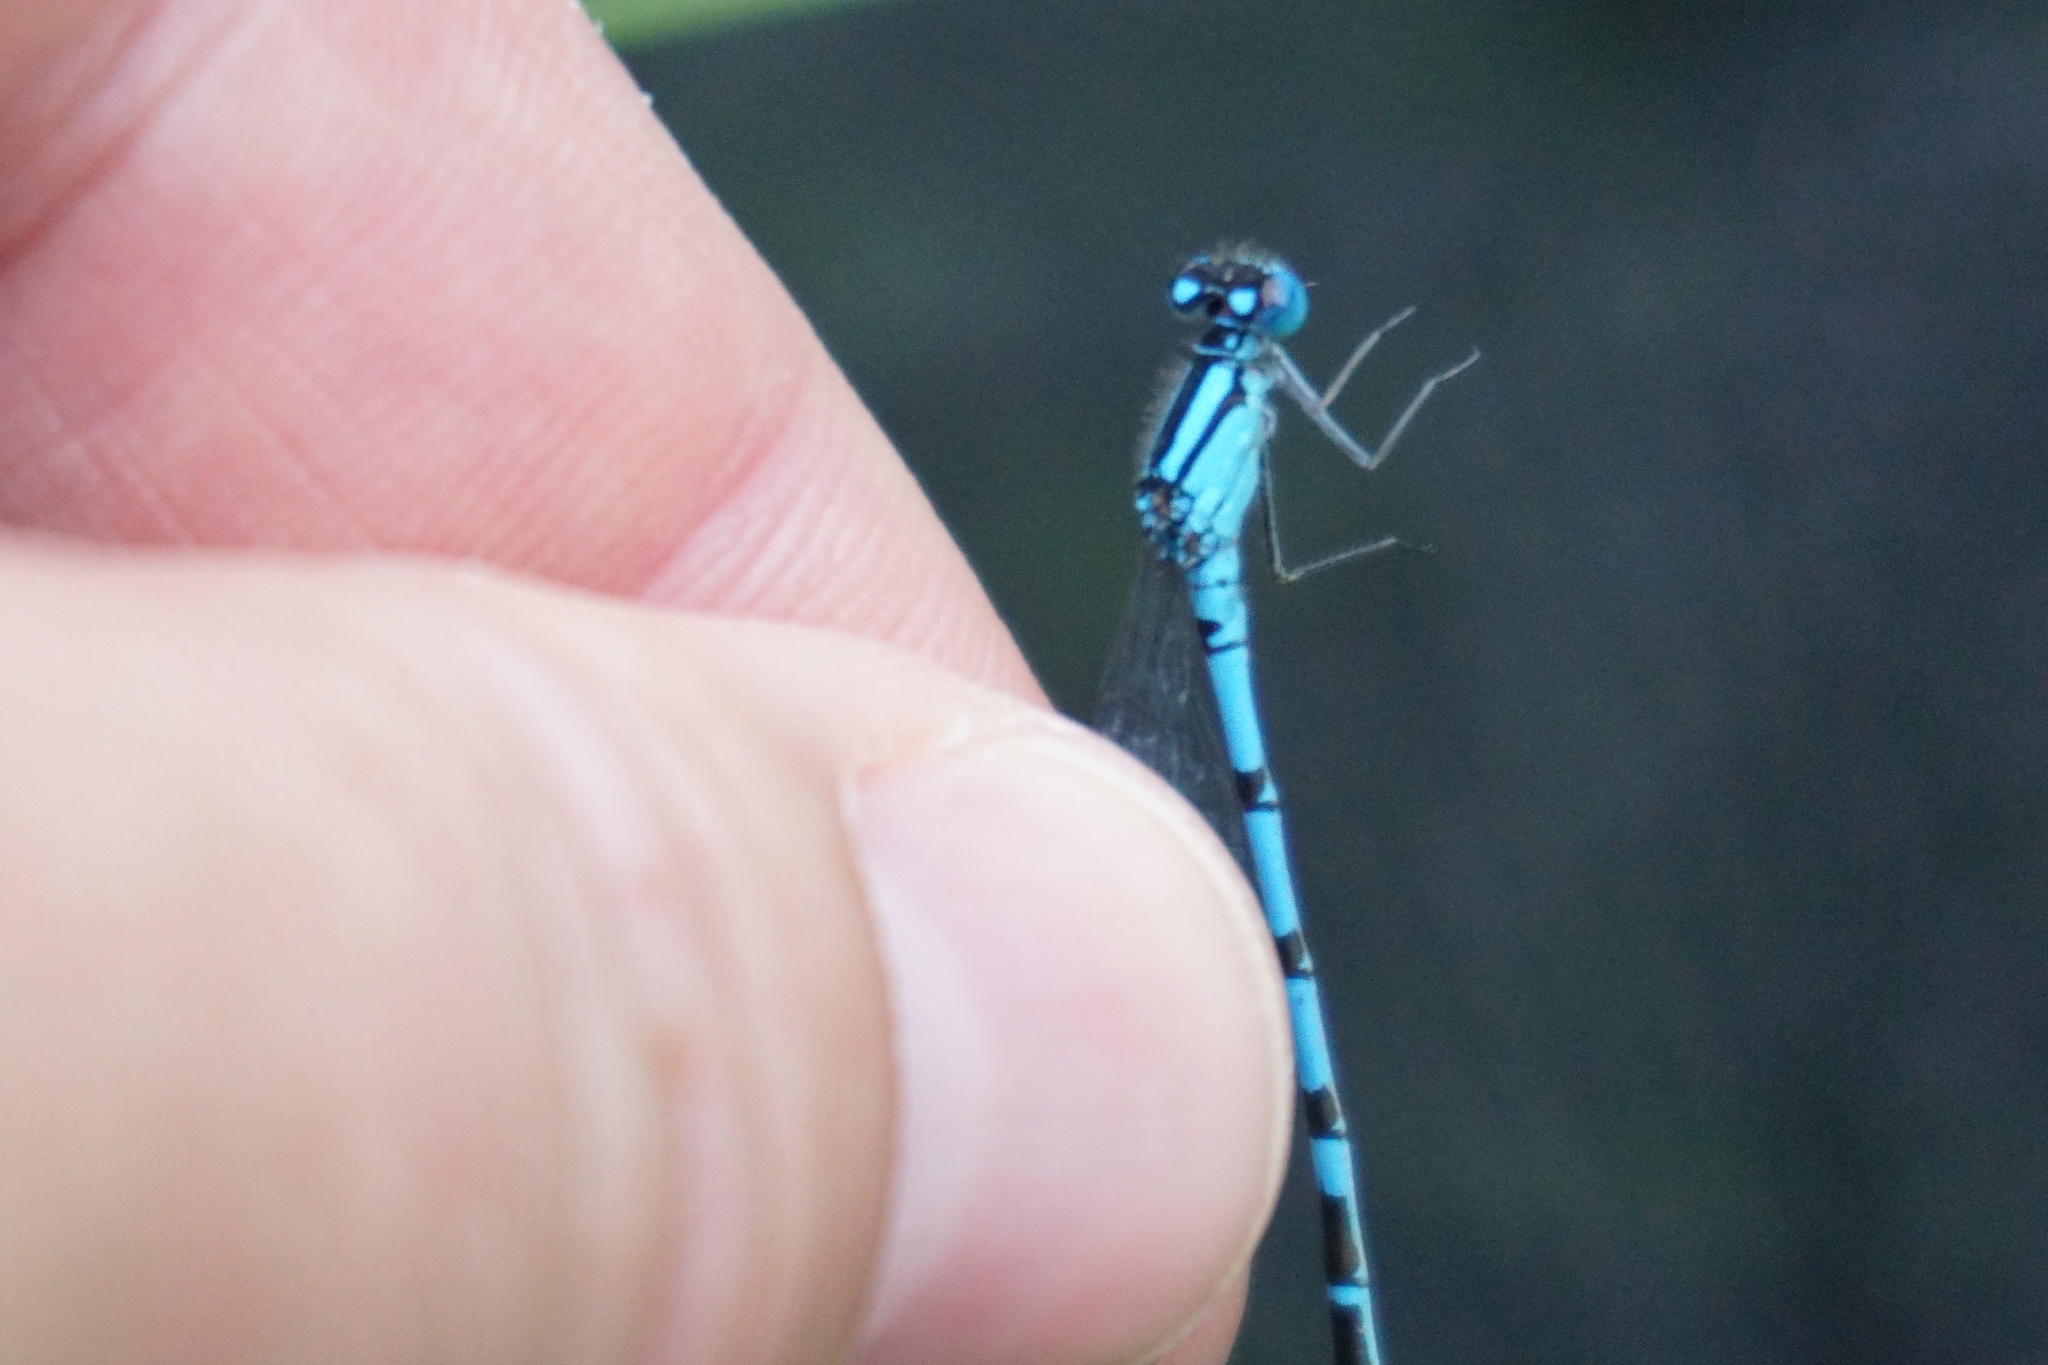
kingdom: Animalia
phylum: Arthropoda
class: Insecta
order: Odonata
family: Coenagrionidae
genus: Enallagma
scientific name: Enallagma cyathigerum
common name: Common blue damselfly
